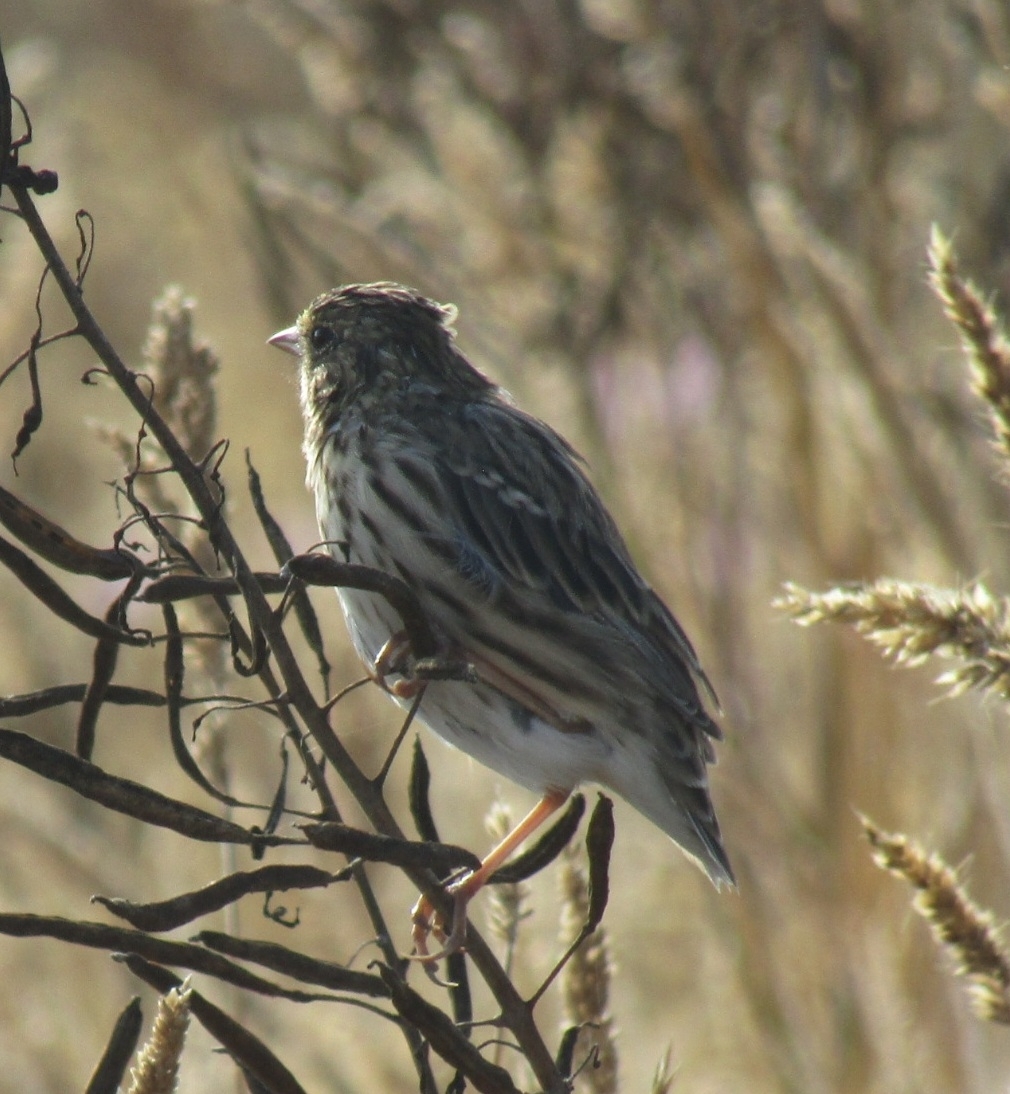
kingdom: Animalia
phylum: Chordata
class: Aves
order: Passeriformes
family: Passerellidae
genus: Passerculus
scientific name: Passerculus sandwichensis
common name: Savannah sparrow
